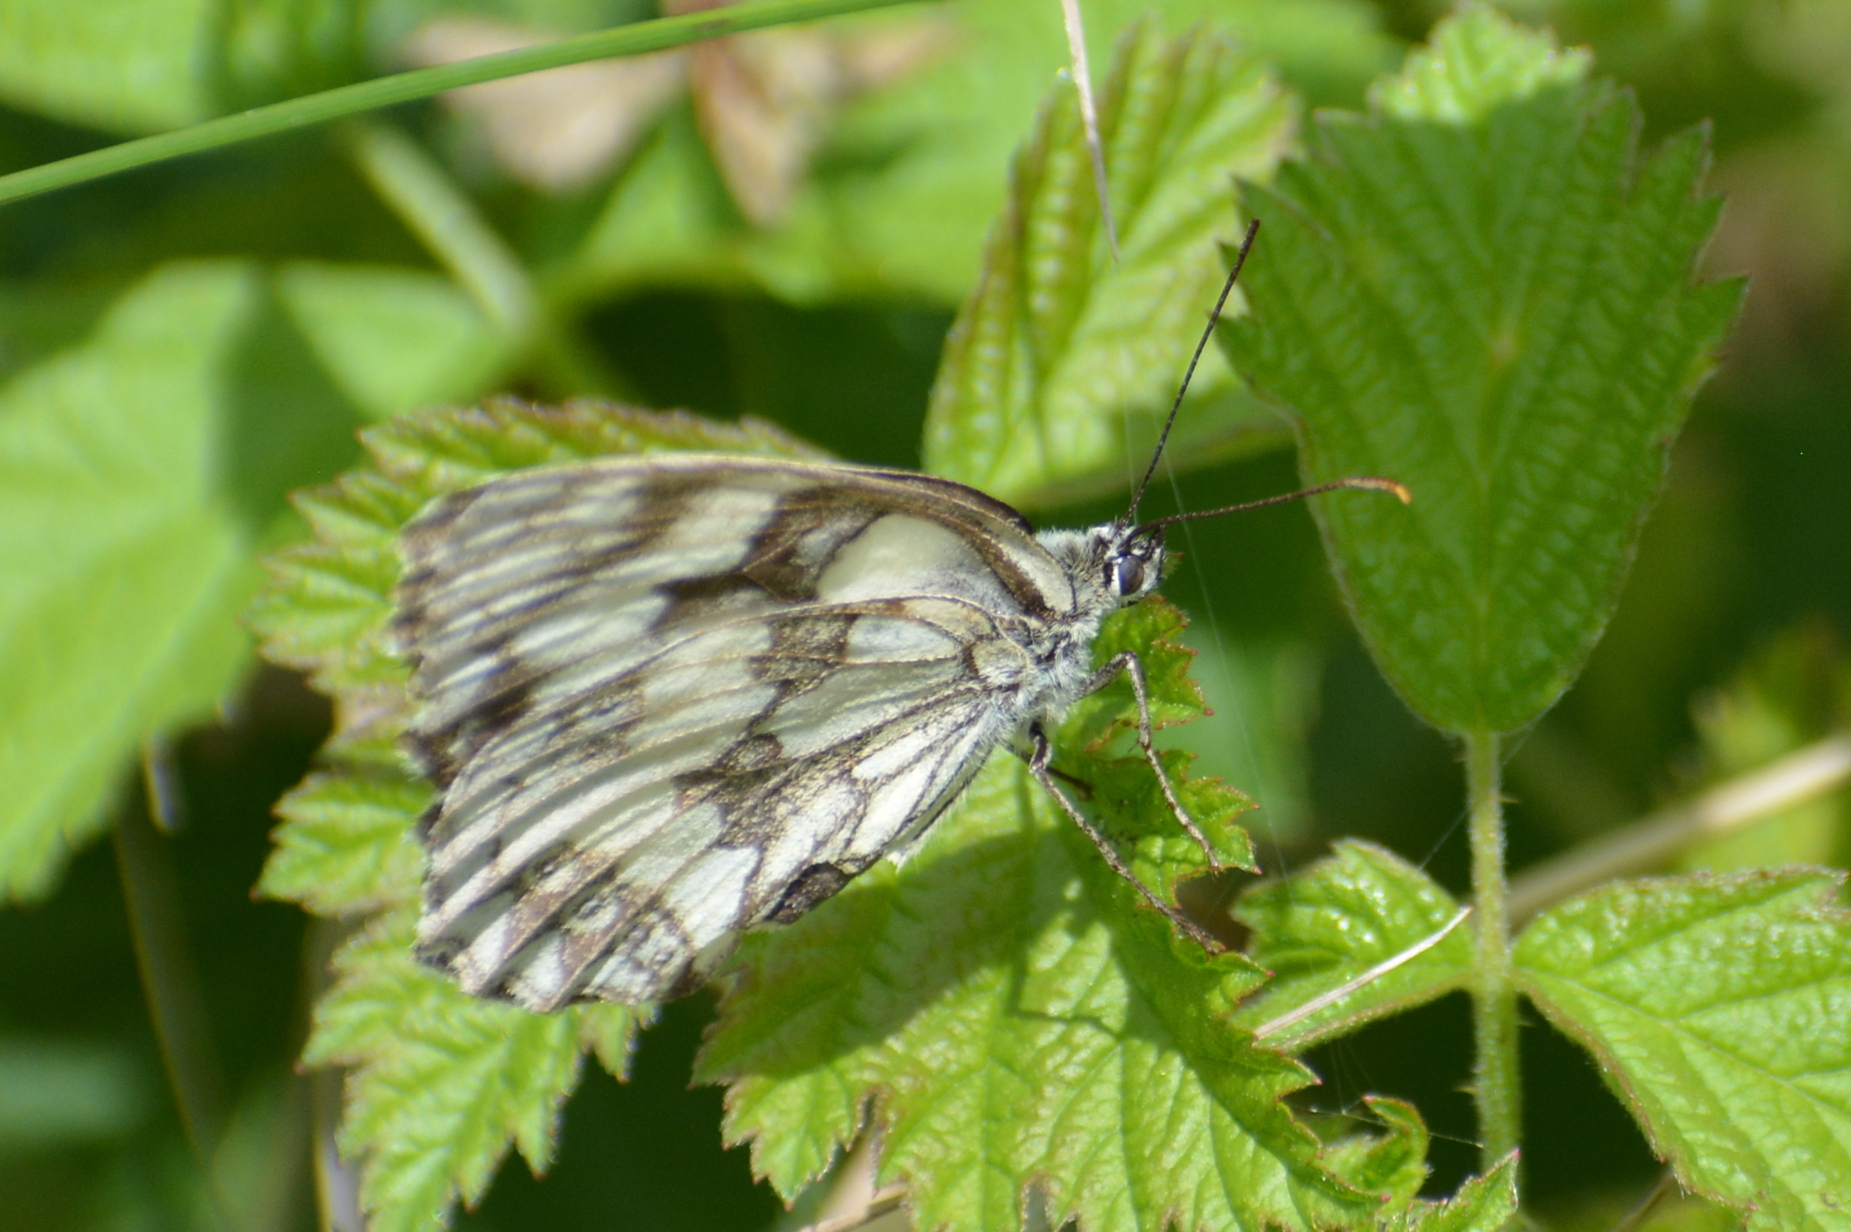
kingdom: Animalia
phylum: Arthropoda
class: Insecta
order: Lepidoptera
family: Nymphalidae
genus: Melanargia
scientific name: Melanargia galathea
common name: Marbled white
